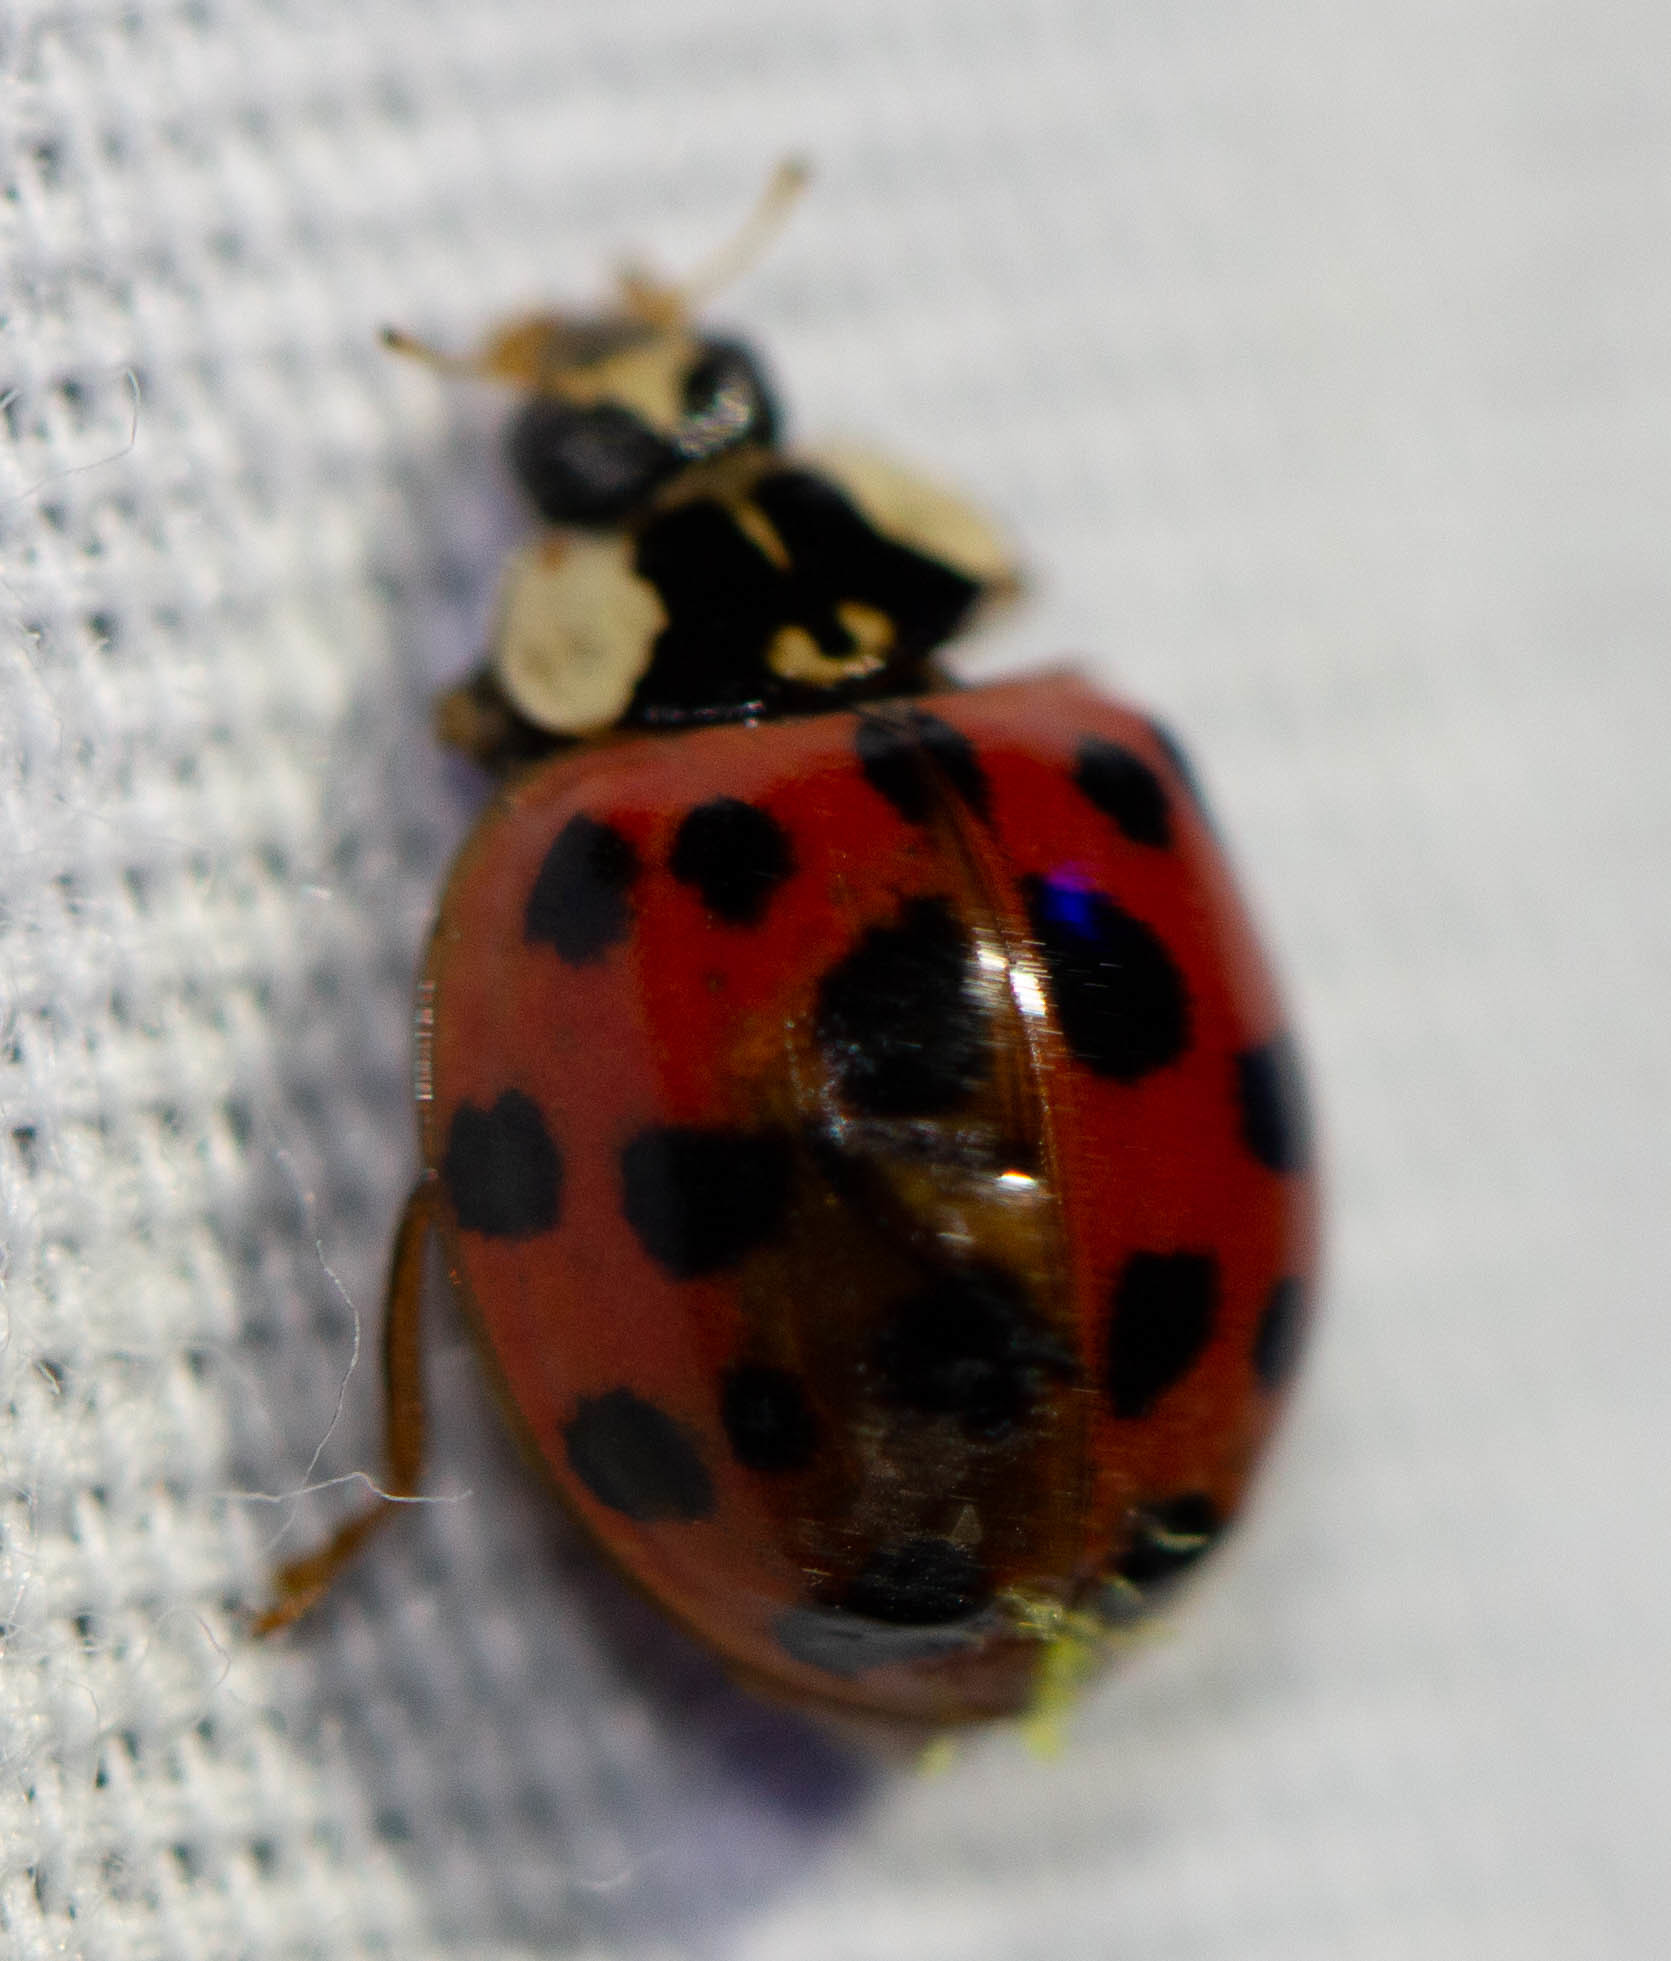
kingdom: Animalia
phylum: Arthropoda
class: Insecta
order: Coleoptera
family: Coccinellidae
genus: Harmonia
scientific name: Harmonia axyridis
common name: Harlequin ladybird
